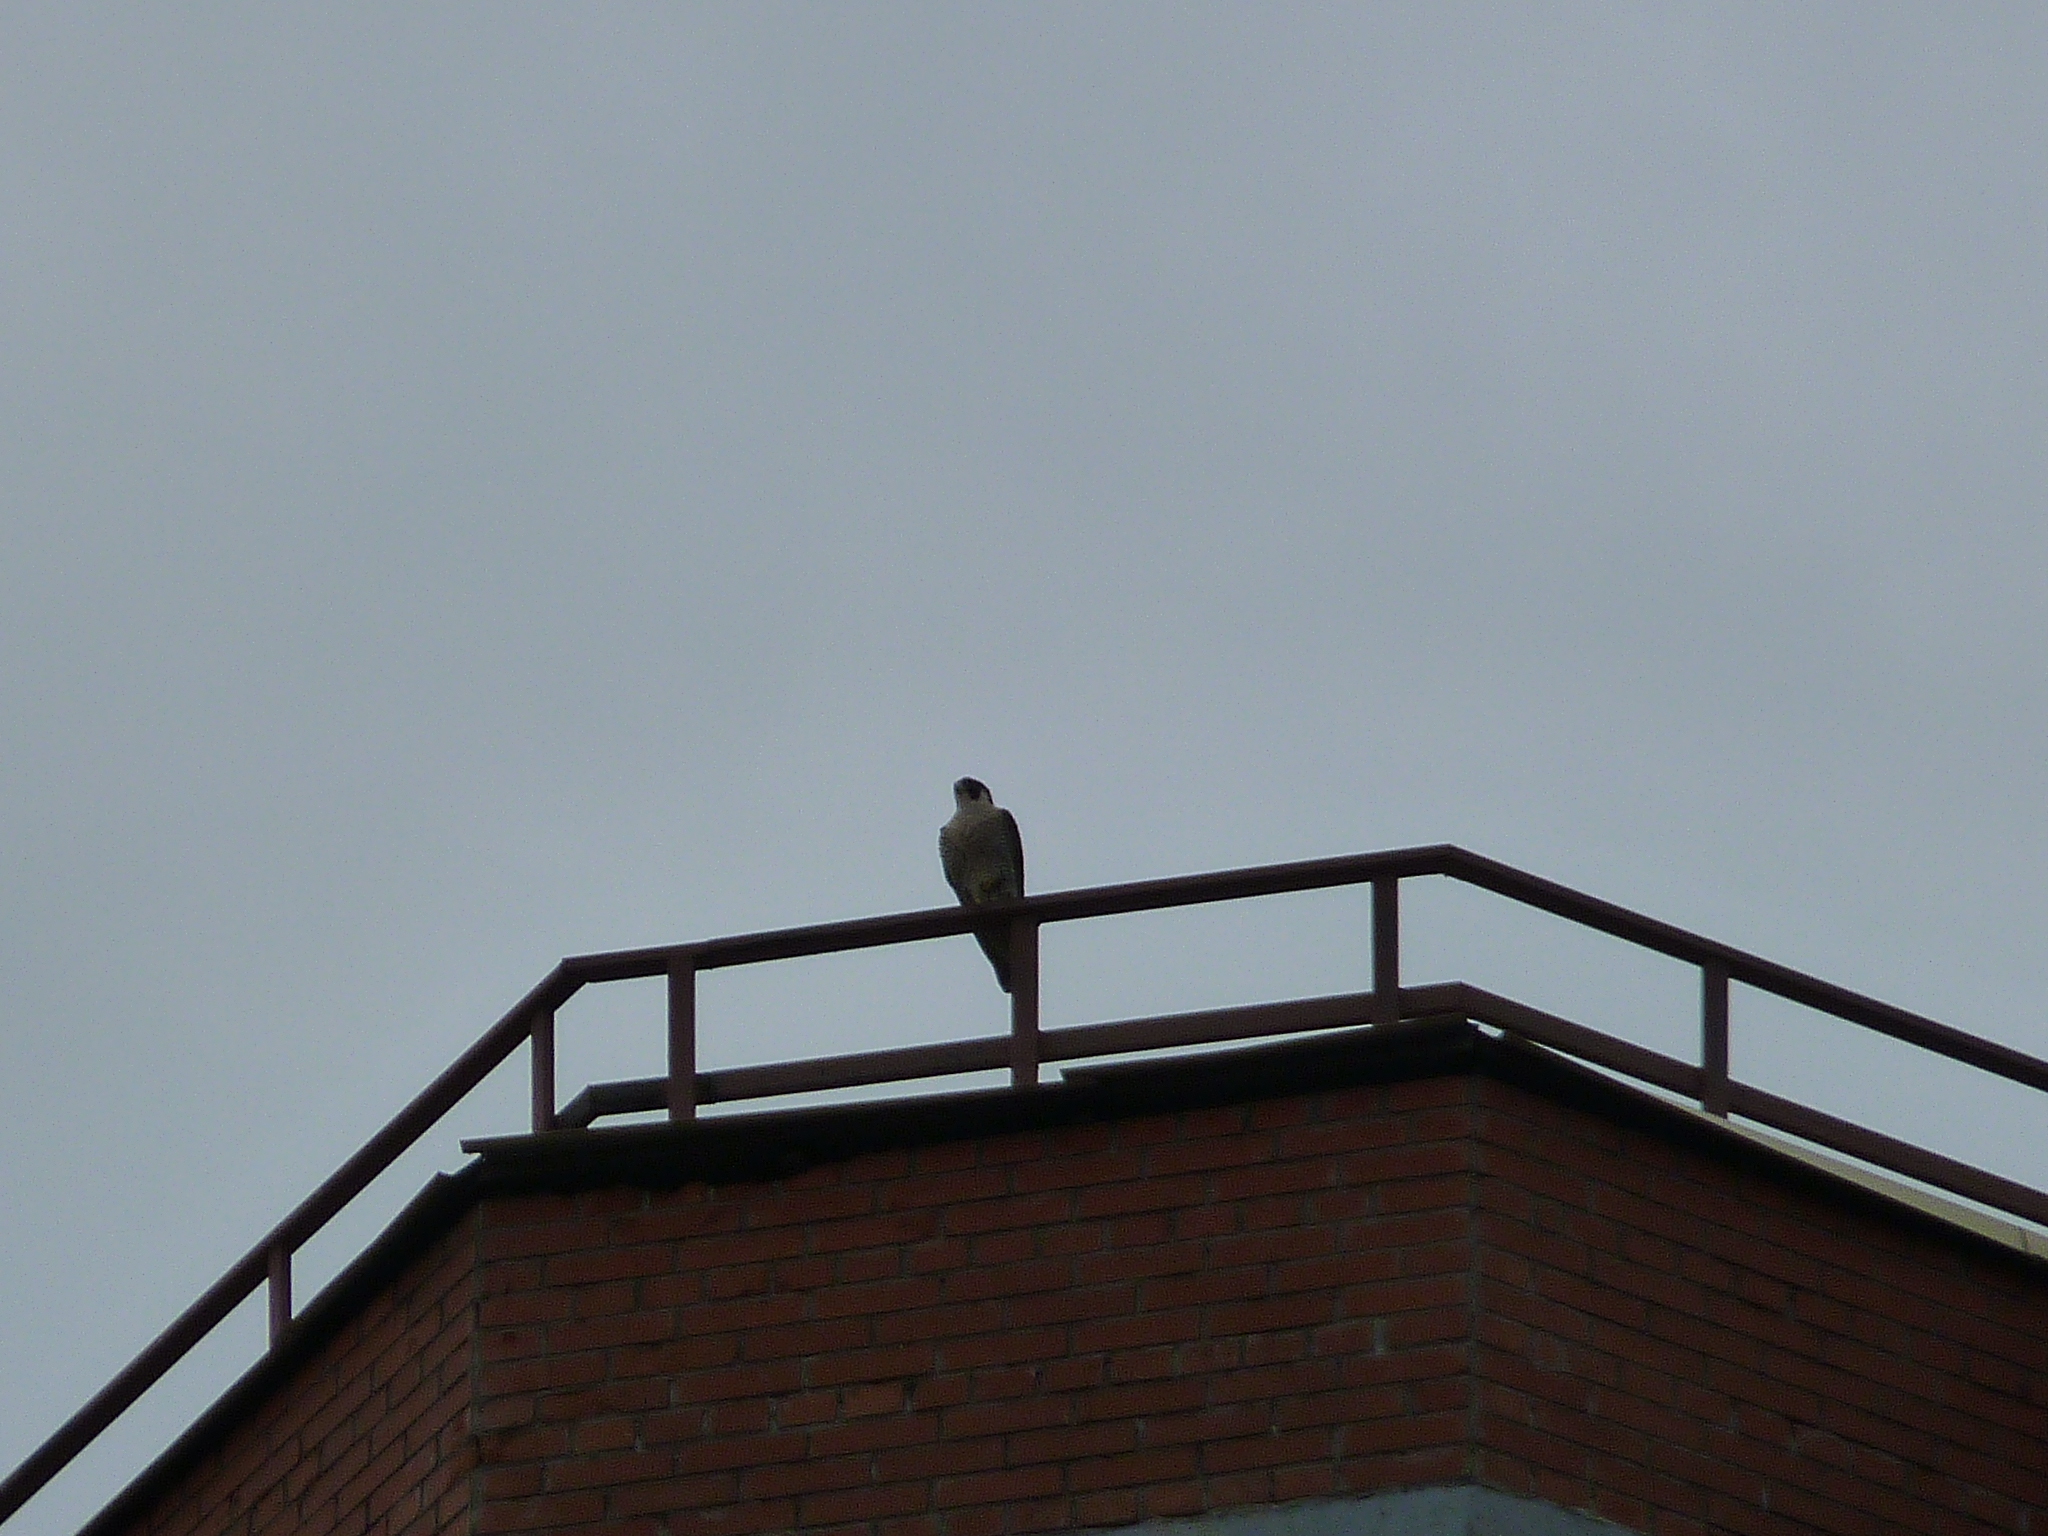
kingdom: Animalia
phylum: Chordata
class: Aves
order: Falconiformes
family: Falconidae
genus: Falco
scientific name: Falco peregrinus
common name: Peregrine falcon
